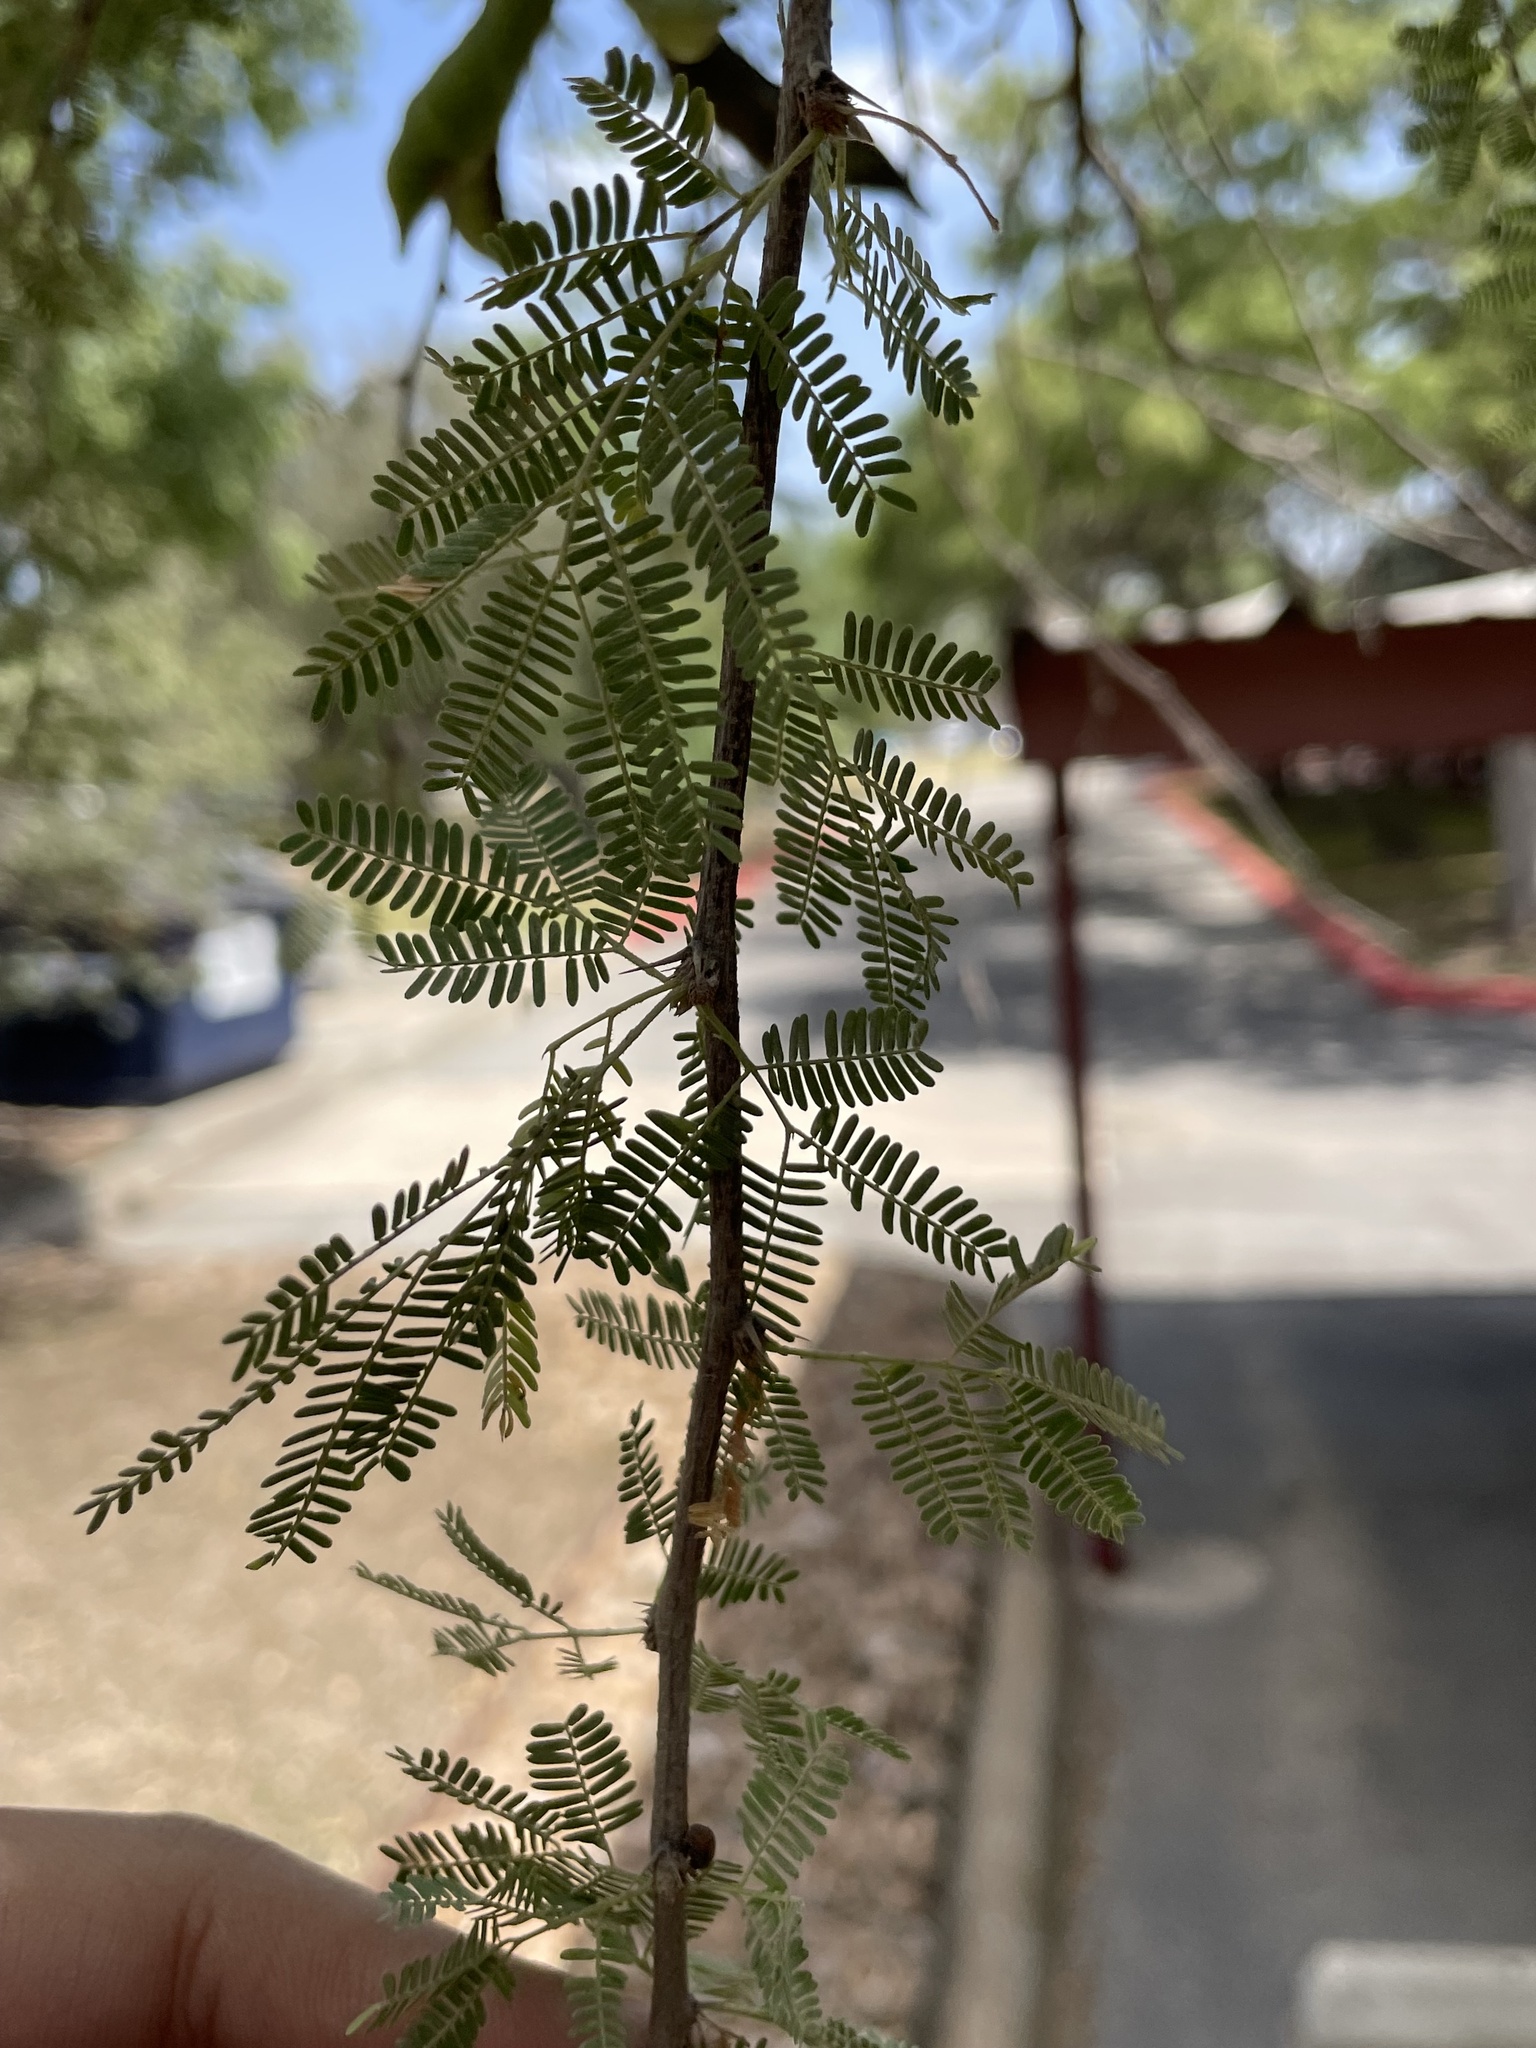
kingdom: Plantae
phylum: Tracheophyta
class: Magnoliopsida
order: Fabales
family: Fabaceae
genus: Vachellia
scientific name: Vachellia farnesiana
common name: Sweet acacia
